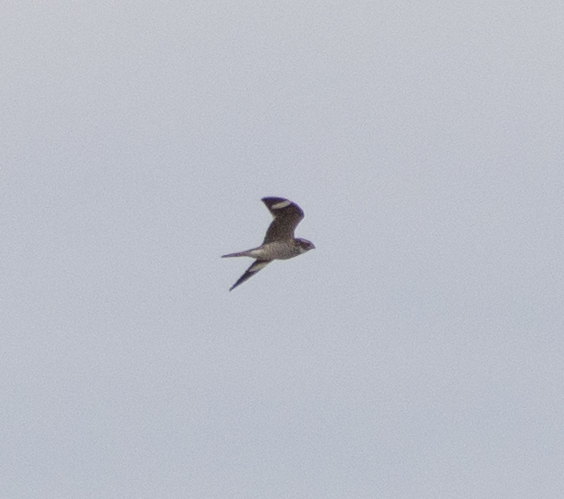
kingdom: Animalia
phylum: Chordata
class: Aves
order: Caprimulgiformes
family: Caprimulgidae
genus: Chordeiles
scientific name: Chordeiles minor
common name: Common nighthawk
